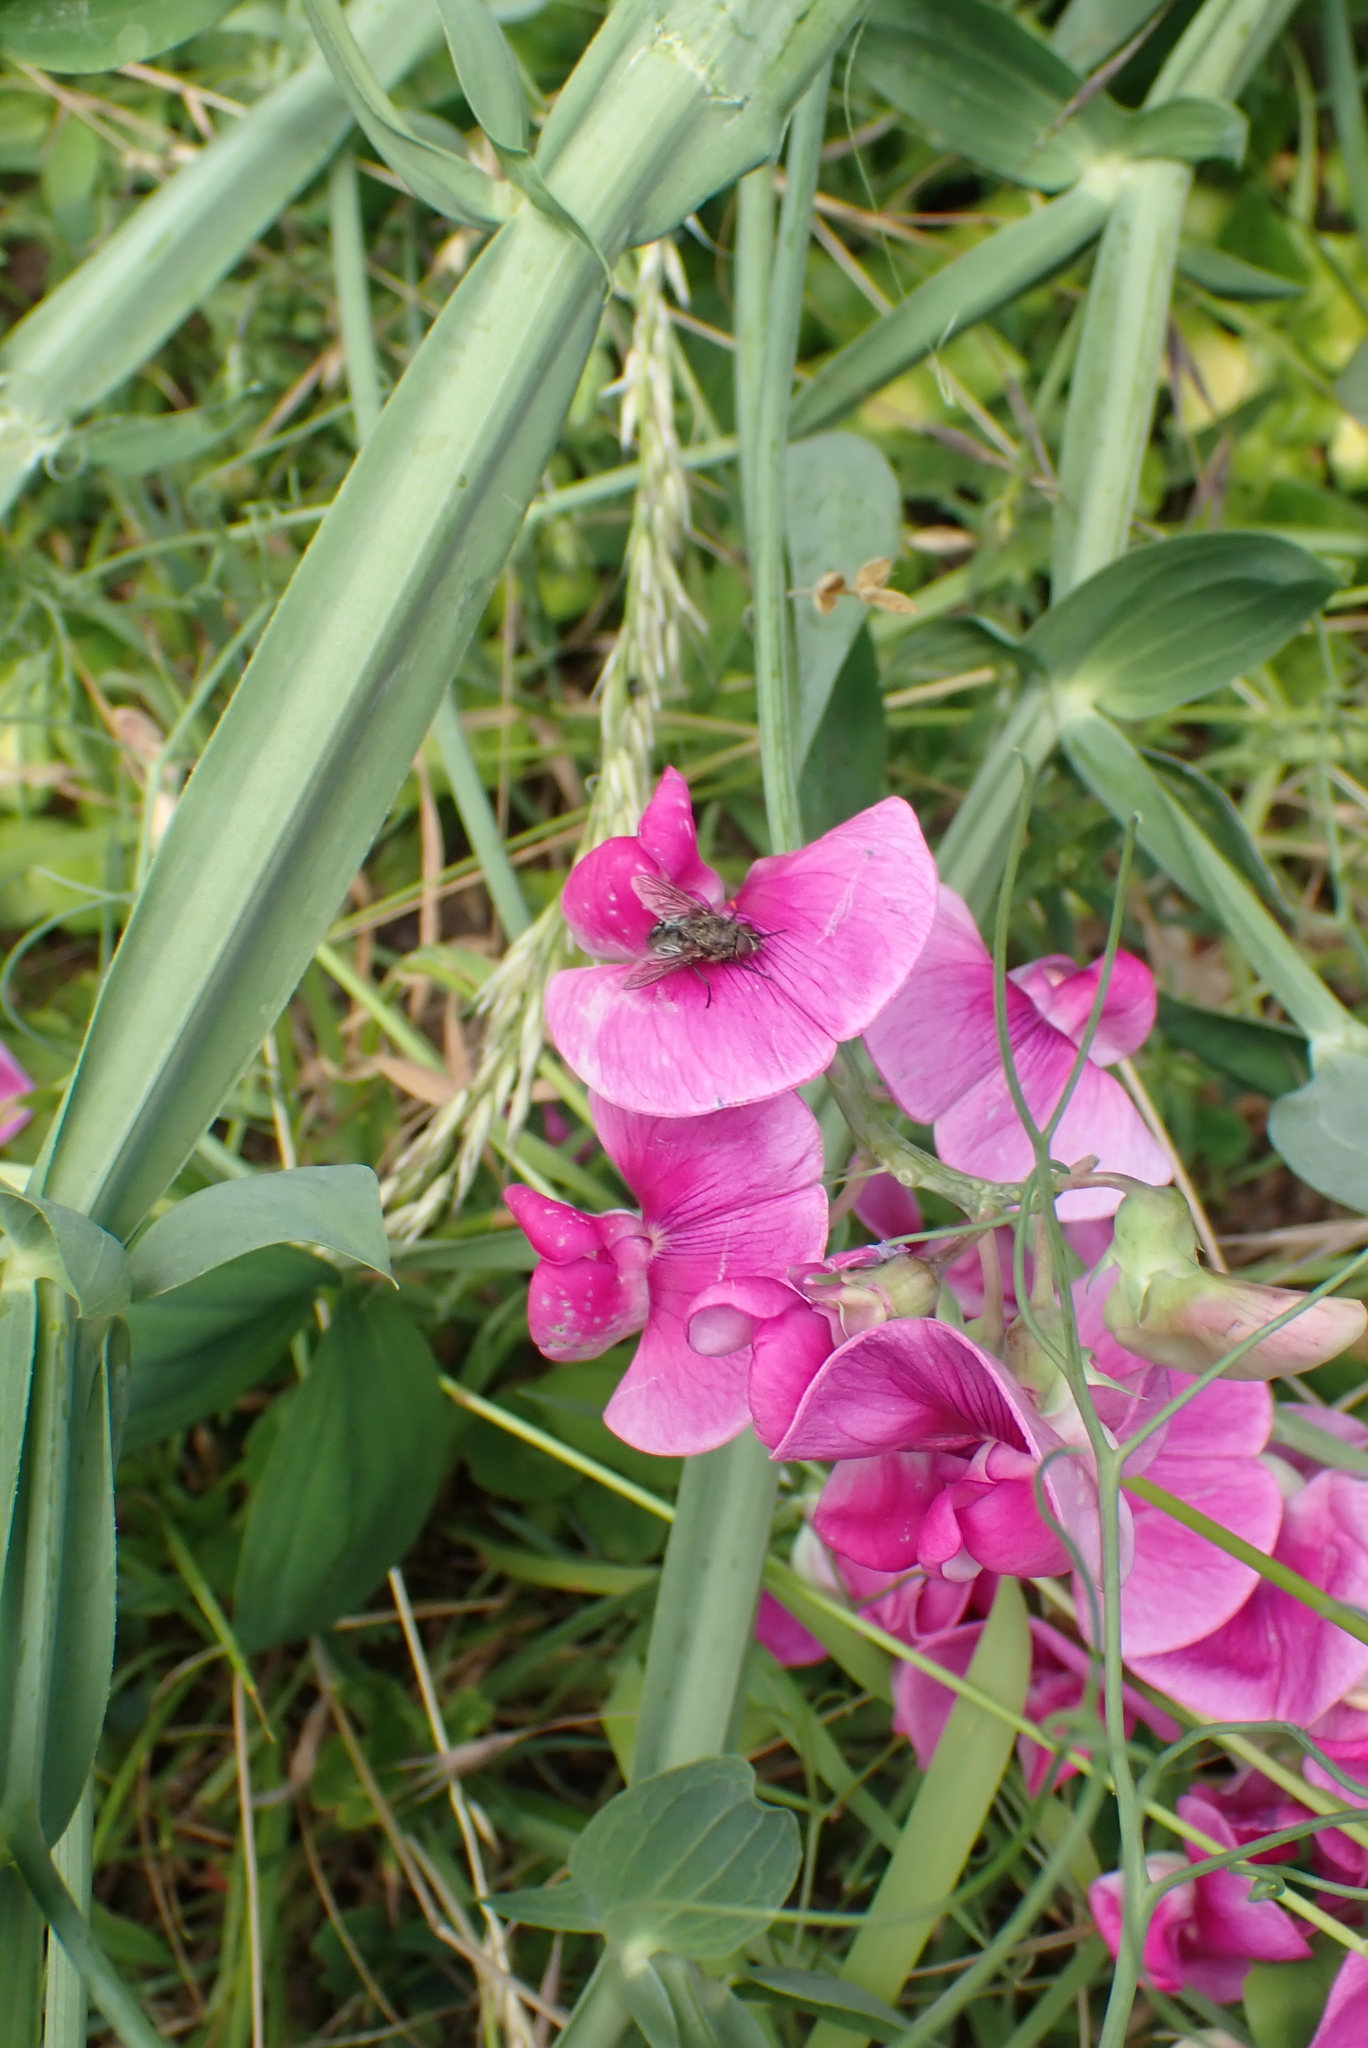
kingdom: Plantae
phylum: Tracheophyta
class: Magnoliopsida
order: Fabales
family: Fabaceae
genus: Lathyrus
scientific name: Lathyrus latifolius
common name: Perennial pea
